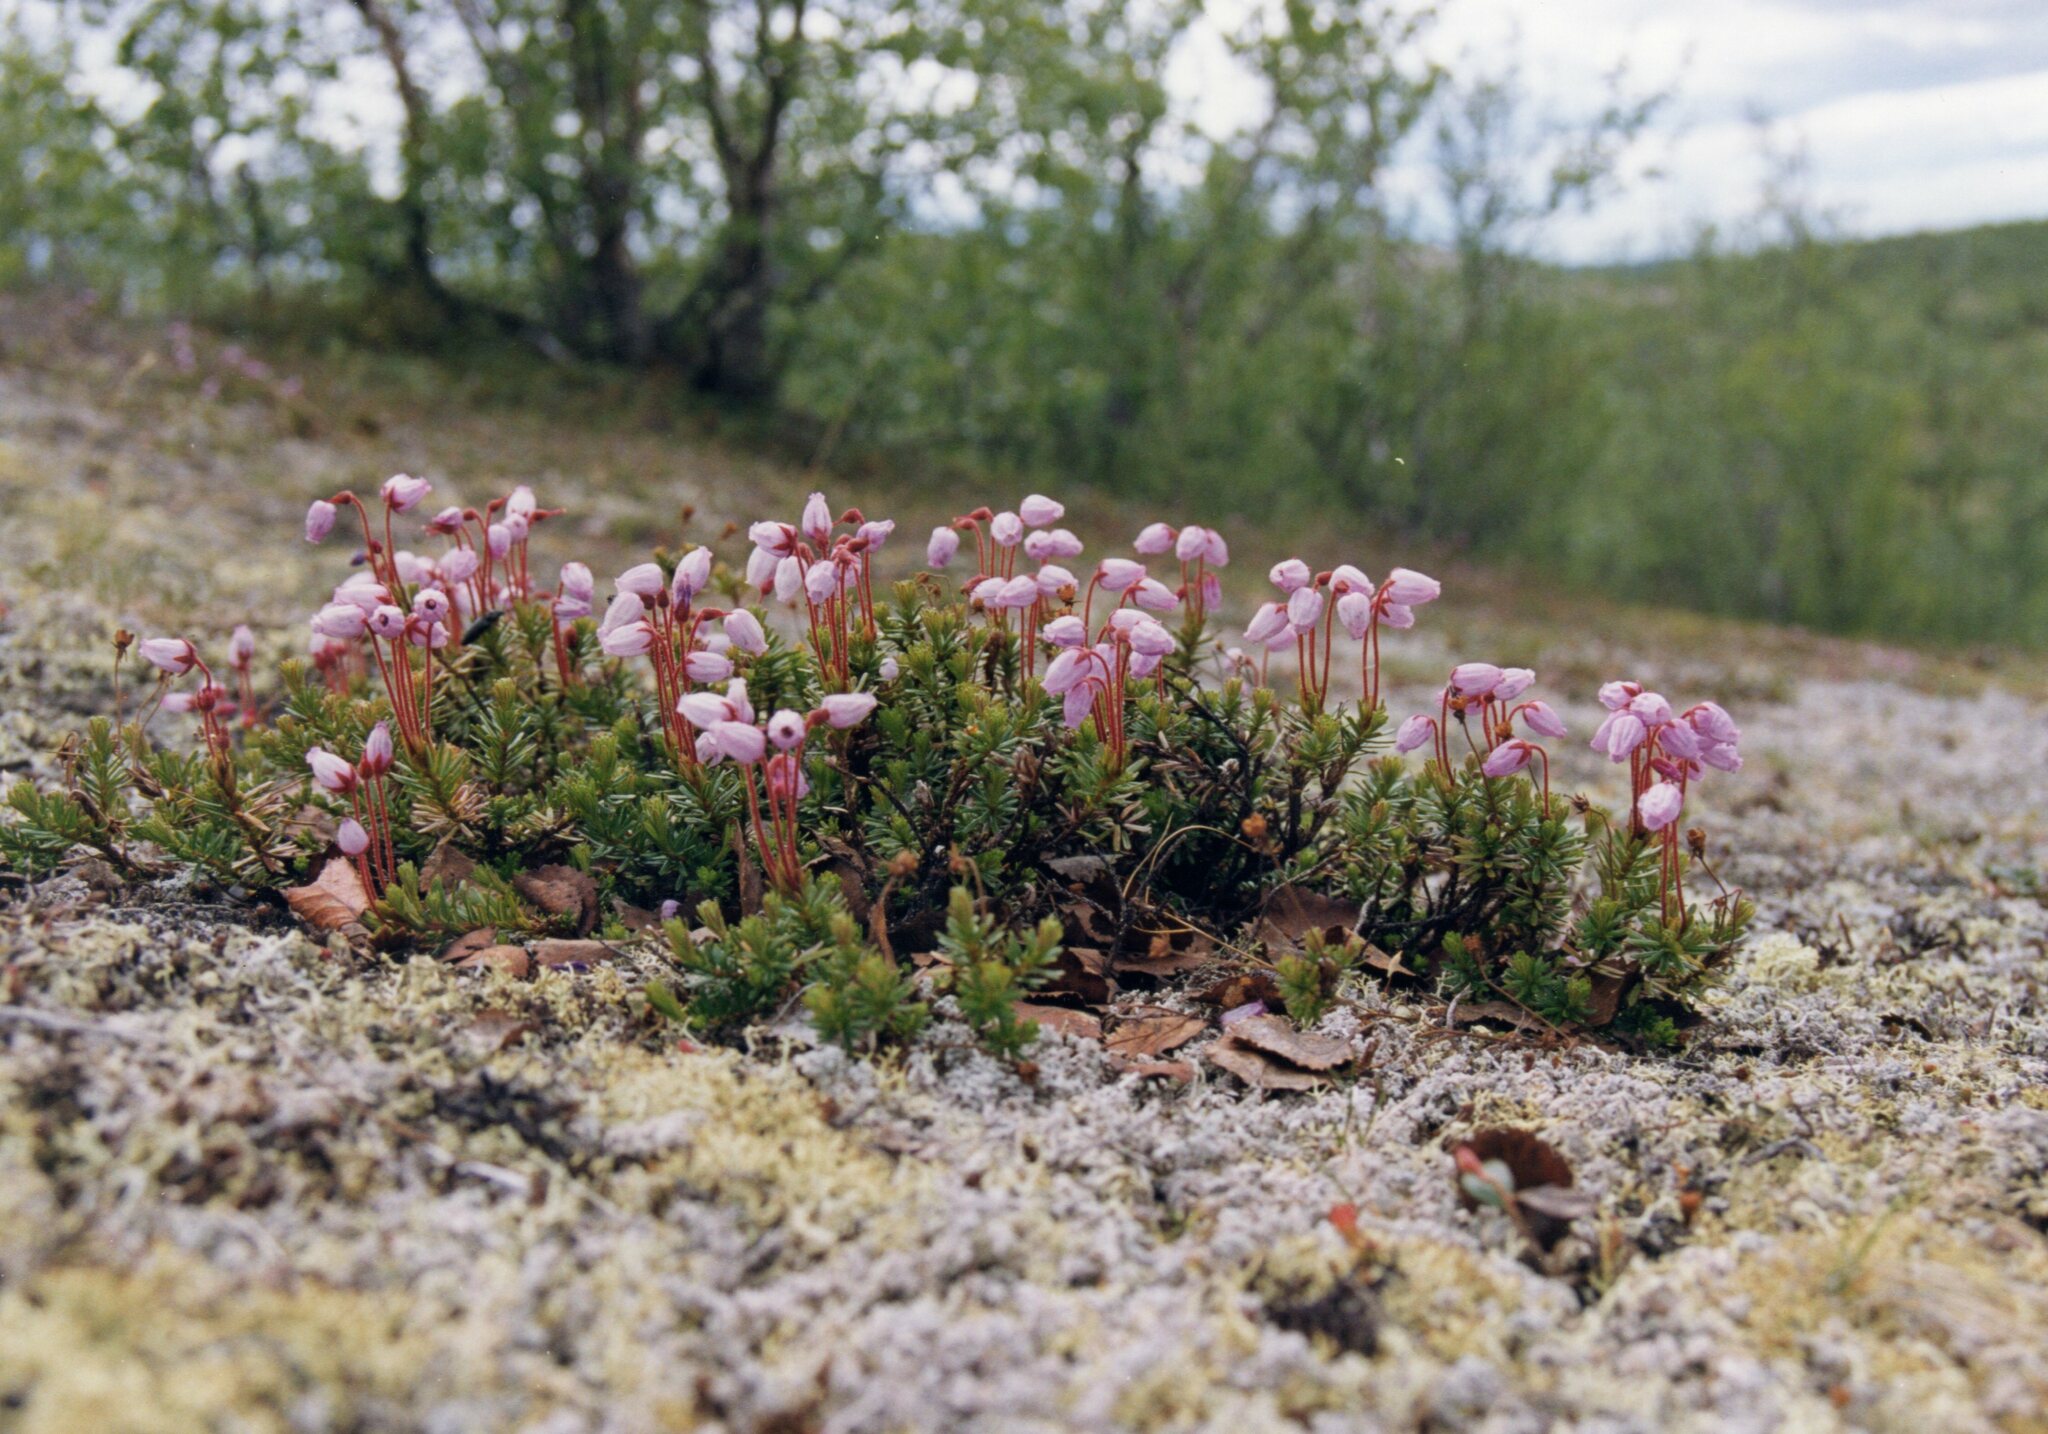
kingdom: Plantae
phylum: Tracheophyta
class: Magnoliopsida
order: Ericales
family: Ericaceae
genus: Phyllodoce
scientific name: Phyllodoce caerulea
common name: Blue heath
